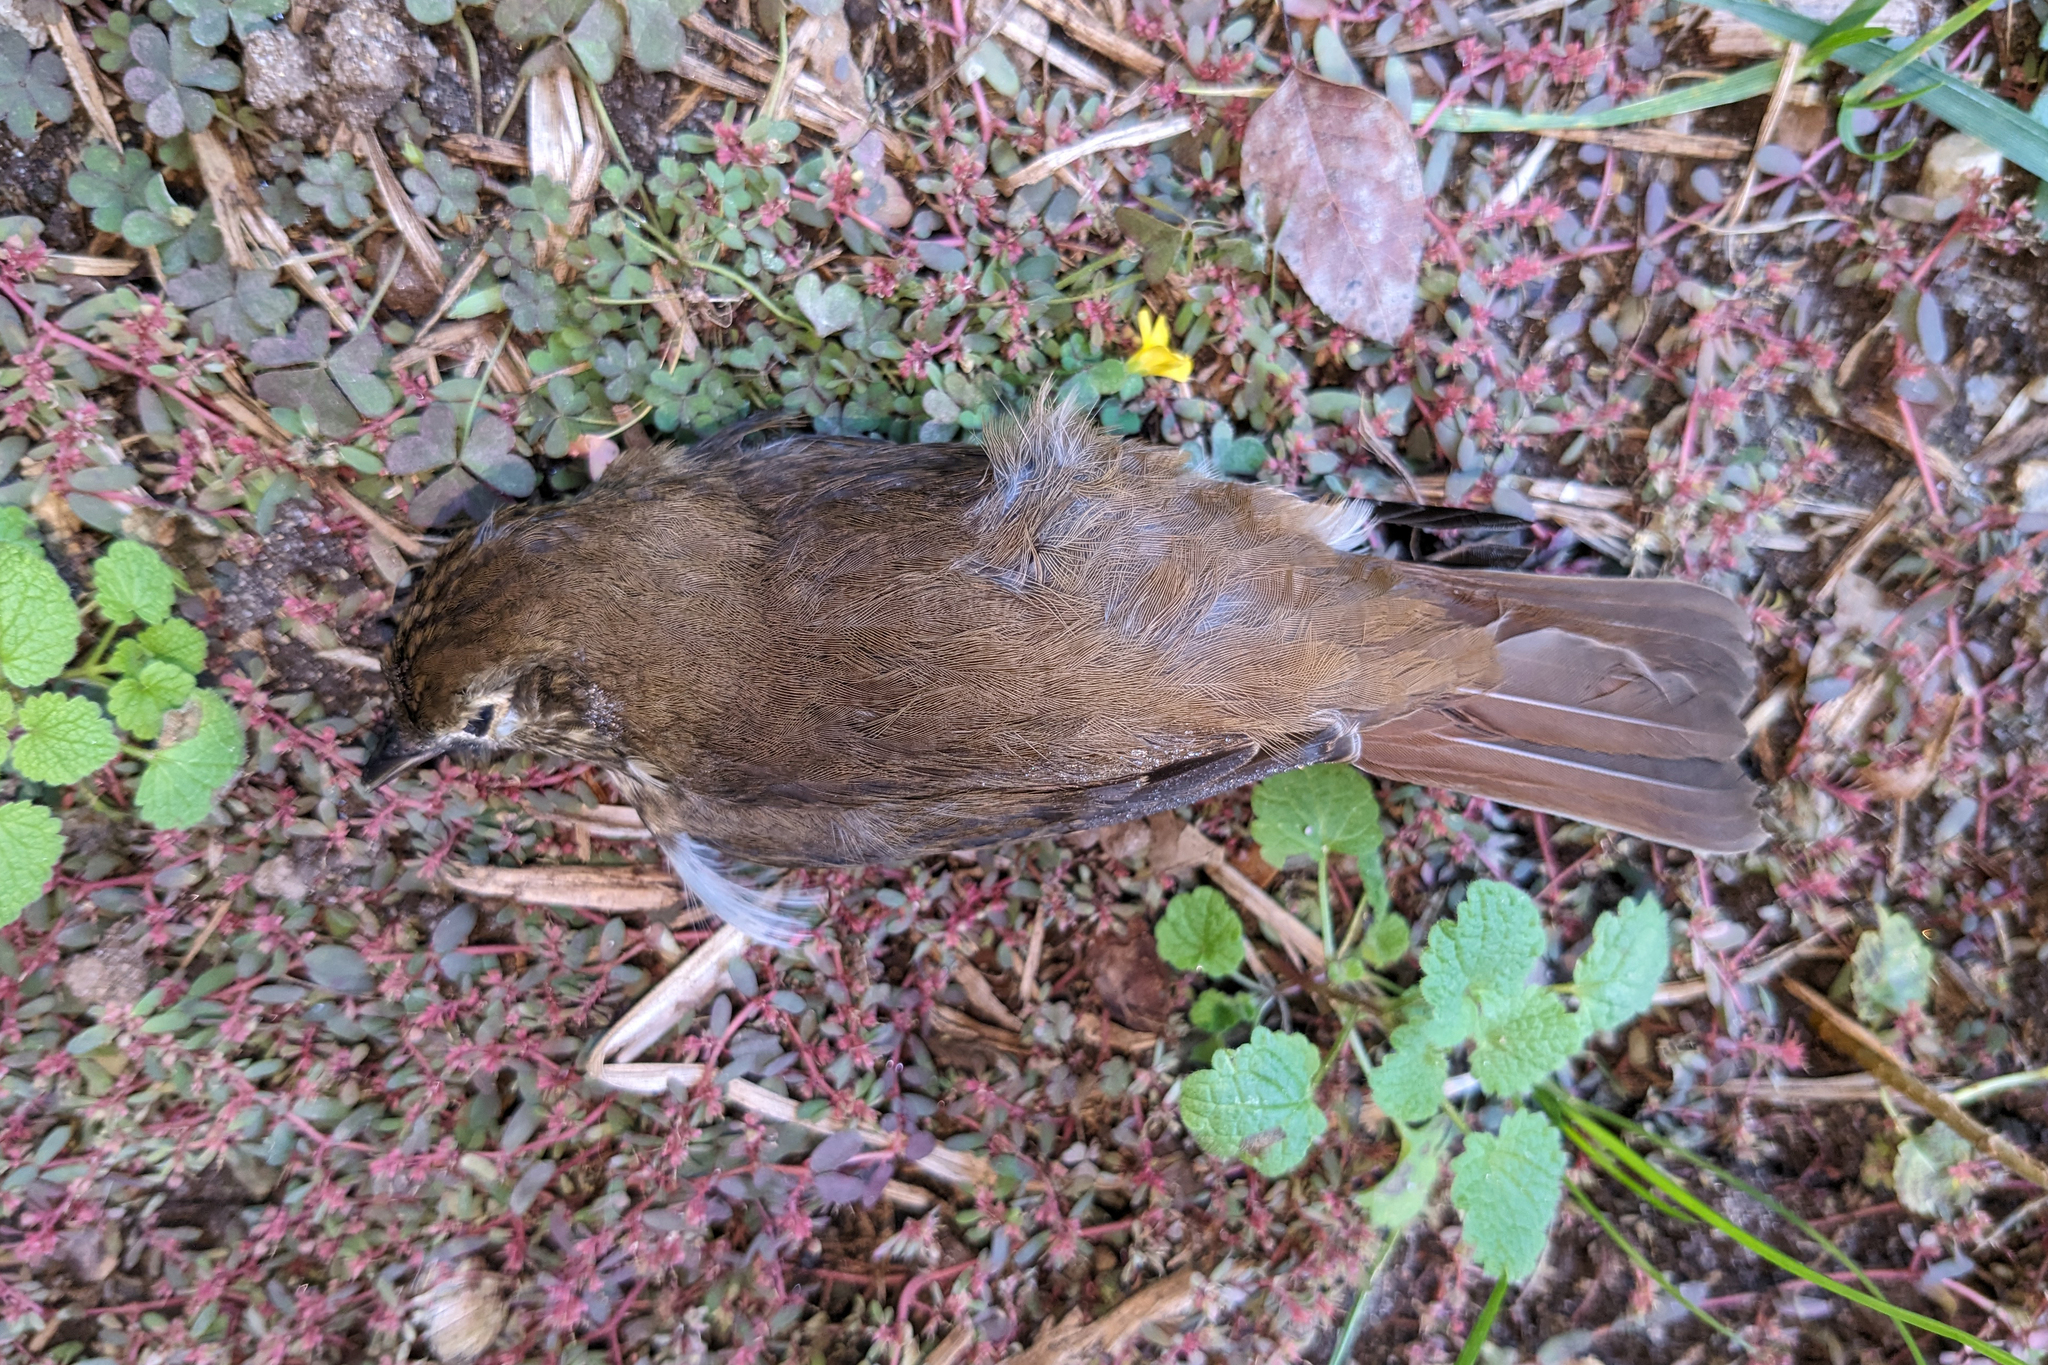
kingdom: Animalia
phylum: Chordata
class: Aves
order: Passeriformes
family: Turdidae
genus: Catharus
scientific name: Catharus guttatus
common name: Hermit thrush
